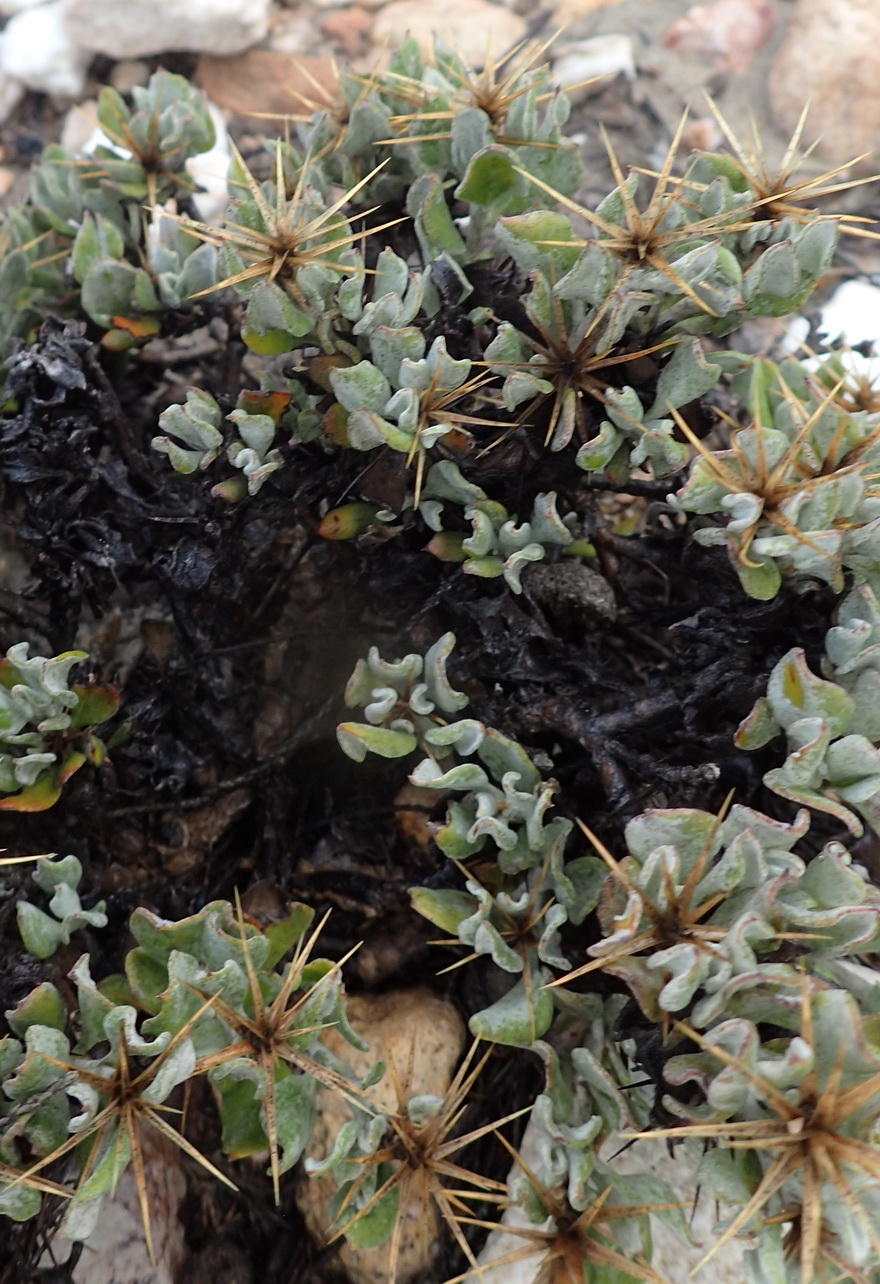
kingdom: Plantae
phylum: Tracheophyta
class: Magnoliopsida
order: Asterales
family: Asteraceae
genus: Macledium
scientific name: Macledium spinosum
